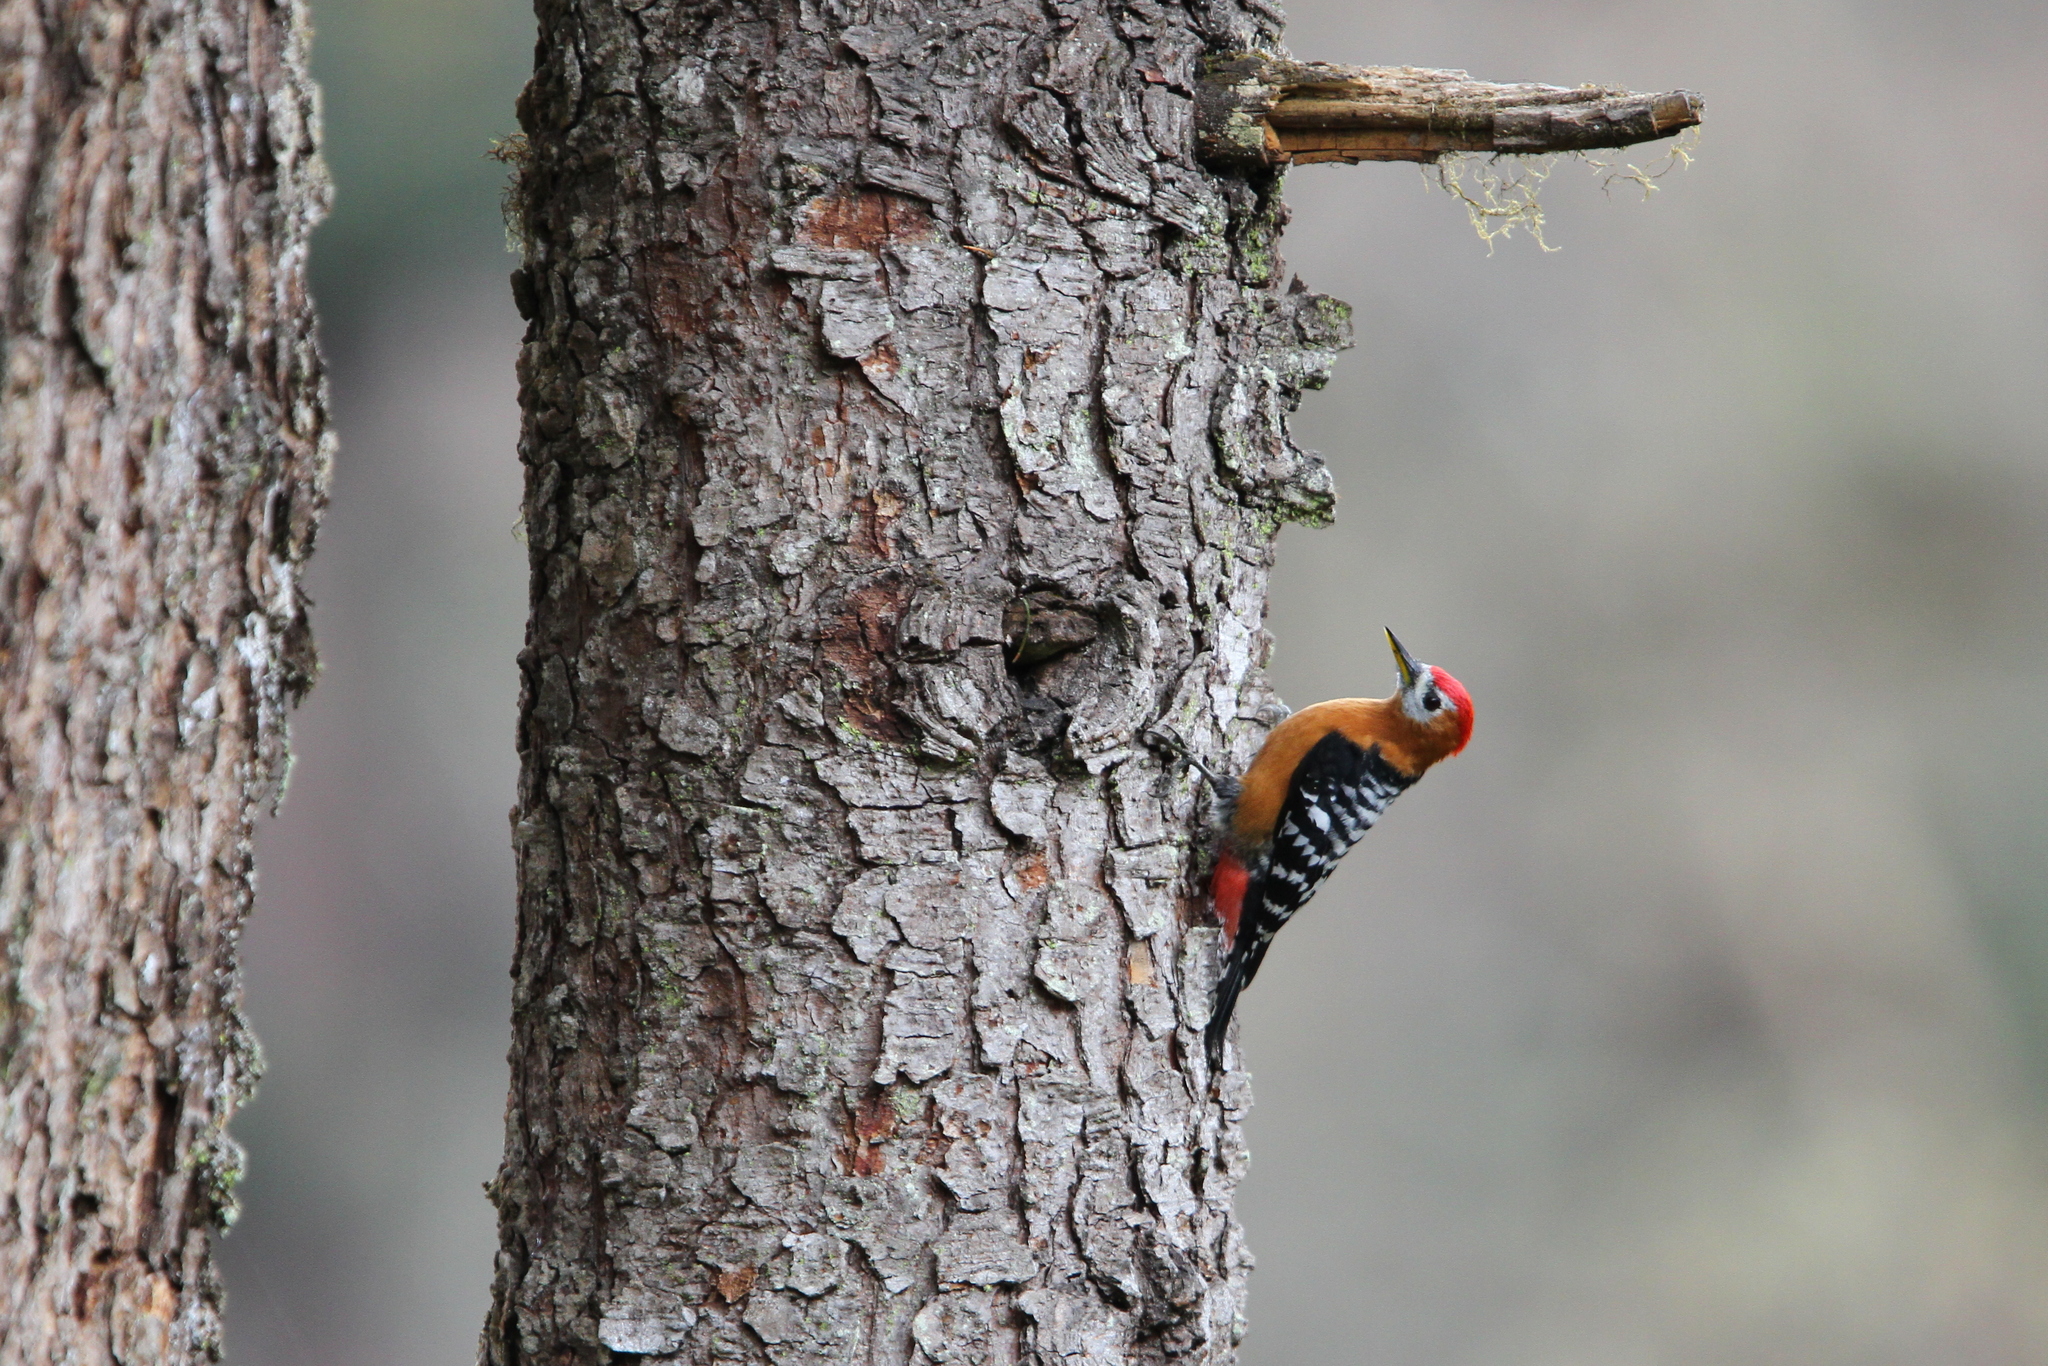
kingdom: Animalia
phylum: Chordata
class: Aves
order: Piciformes
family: Picidae
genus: Dendrocopos
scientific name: Dendrocopos hyperythrus
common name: Rufous-bellied woodpecker
